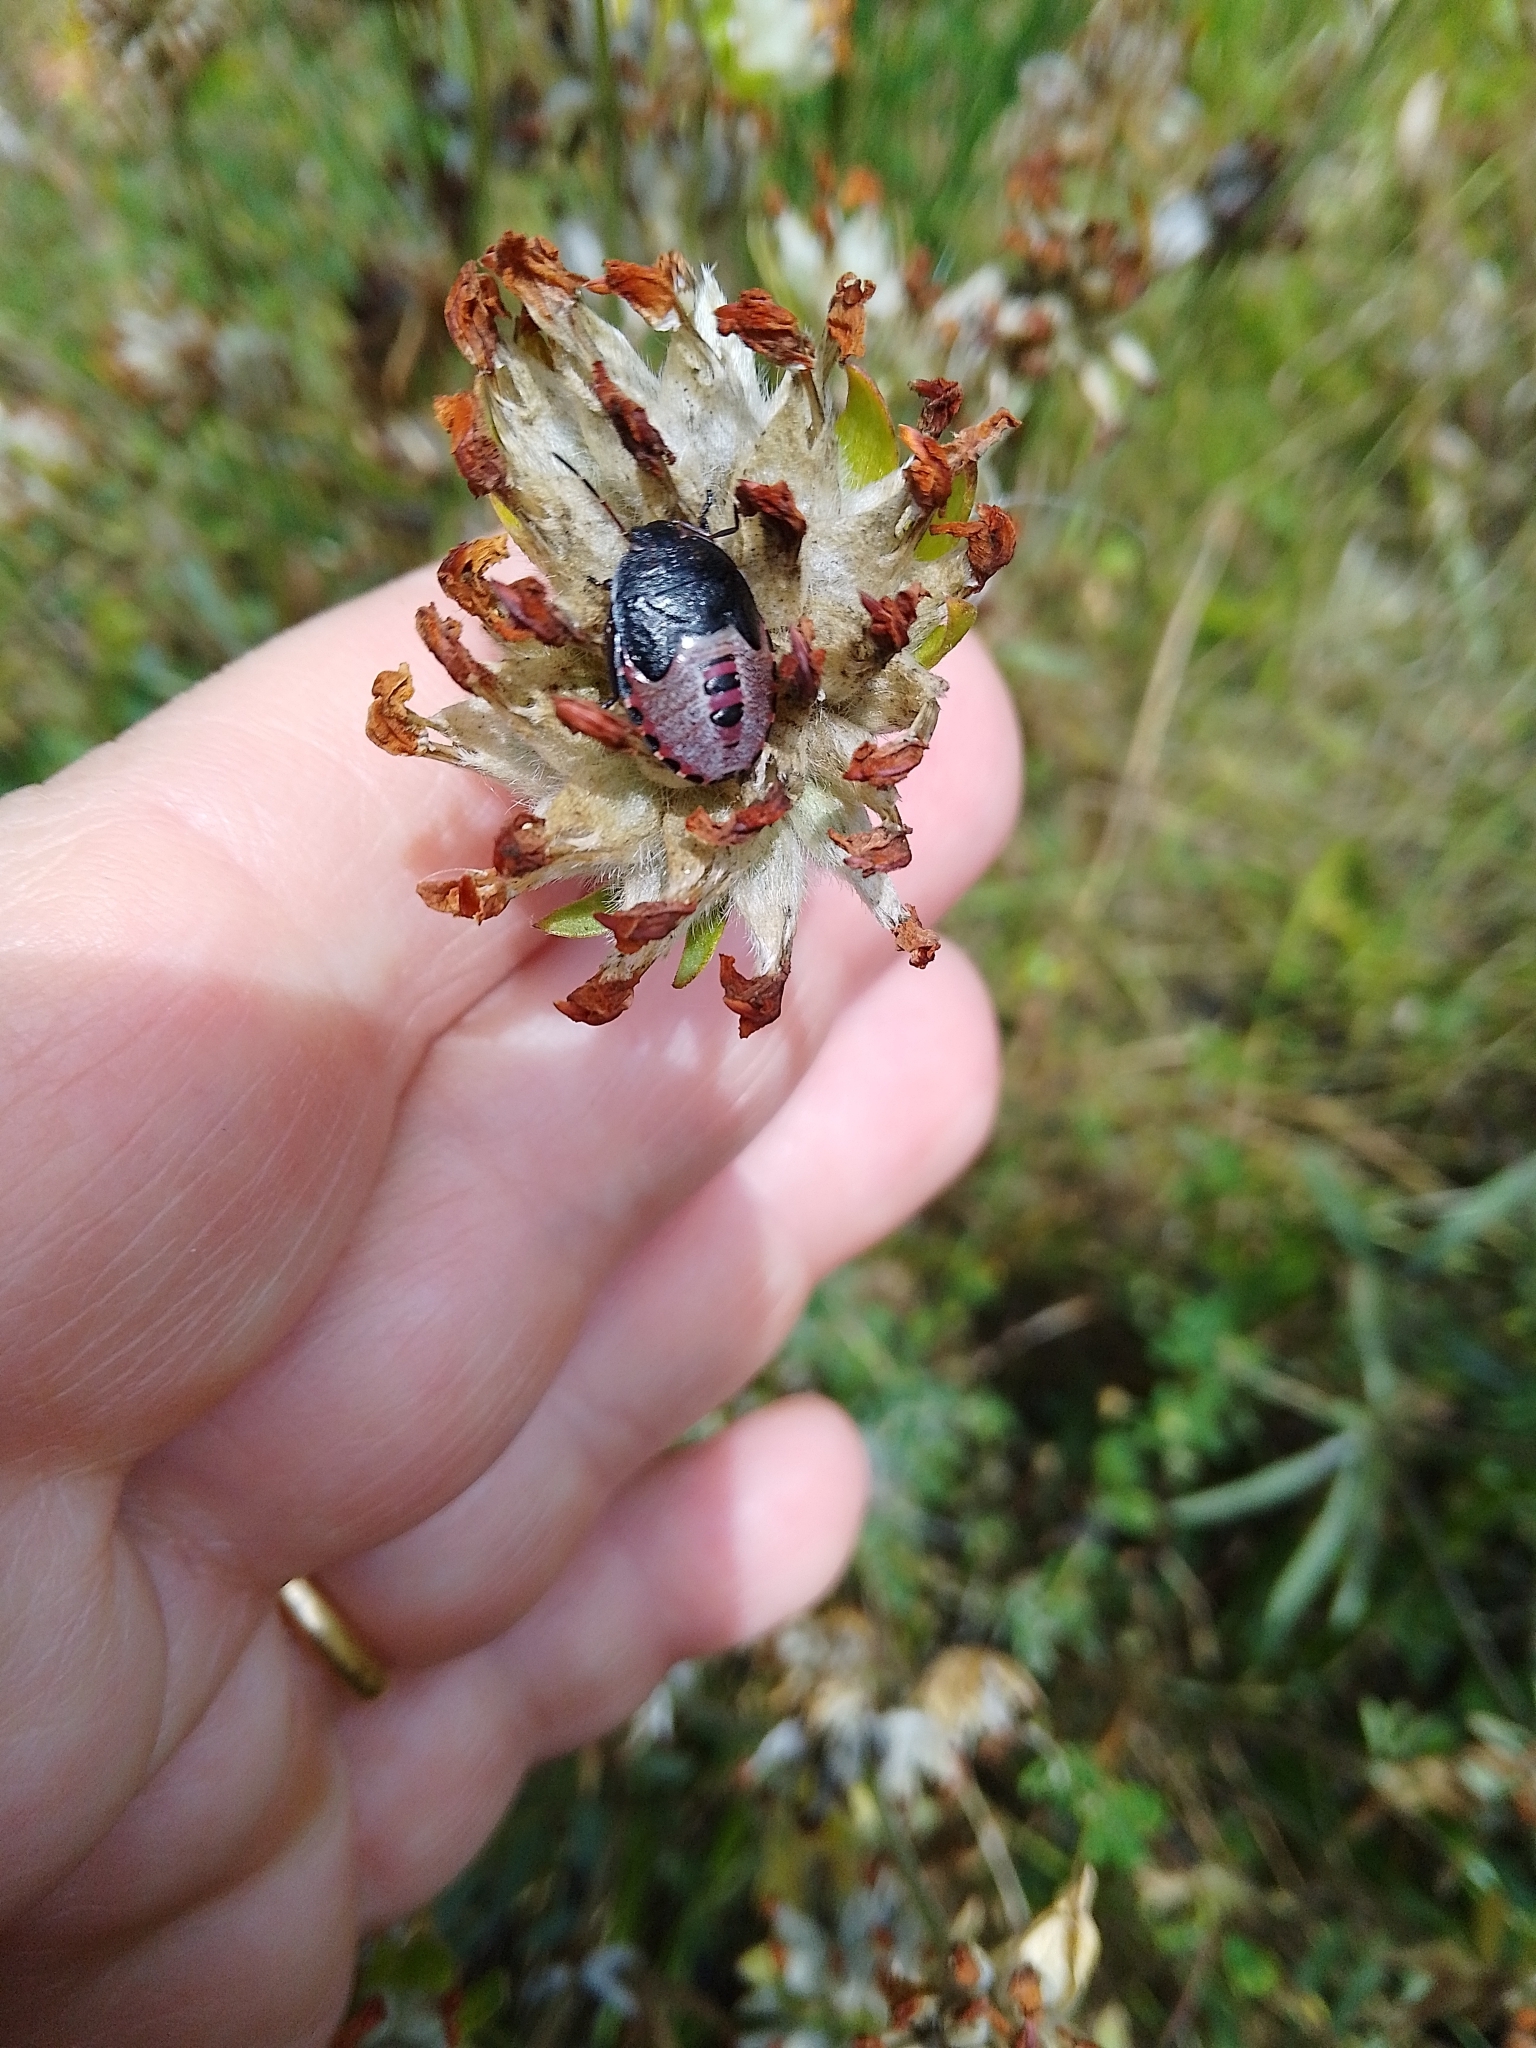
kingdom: Animalia
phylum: Arthropoda
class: Insecta
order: Hemiptera
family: Pentatomidae
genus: Piezodorus
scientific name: Piezodorus lituratus
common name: Stink bug
